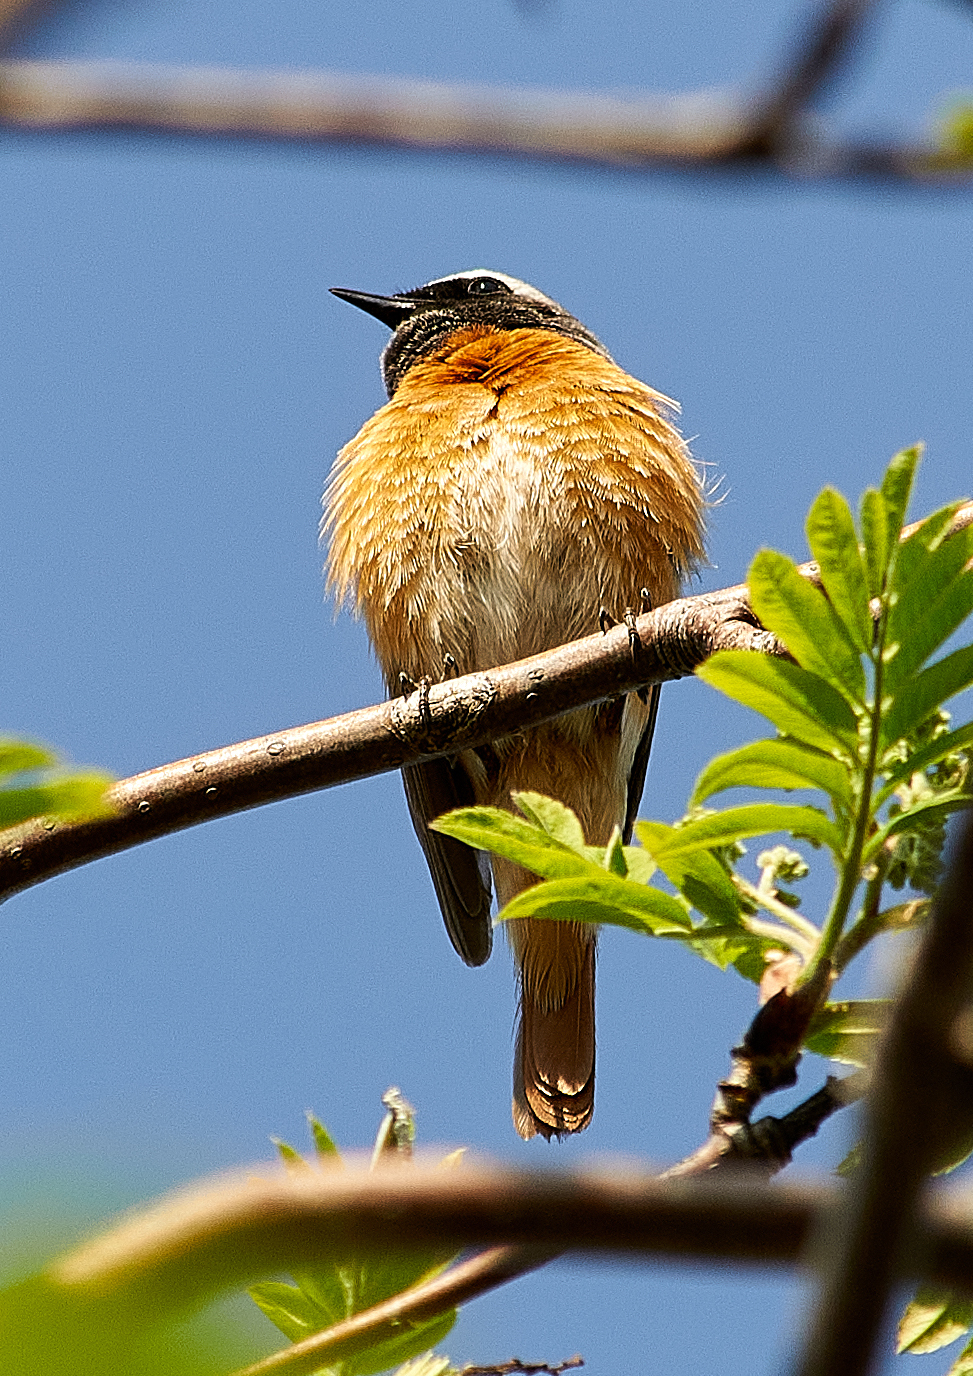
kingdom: Animalia
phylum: Chordata
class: Aves
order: Passeriformes
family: Muscicapidae
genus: Phoenicurus
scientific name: Phoenicurus phoenicurus
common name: Common redstart
